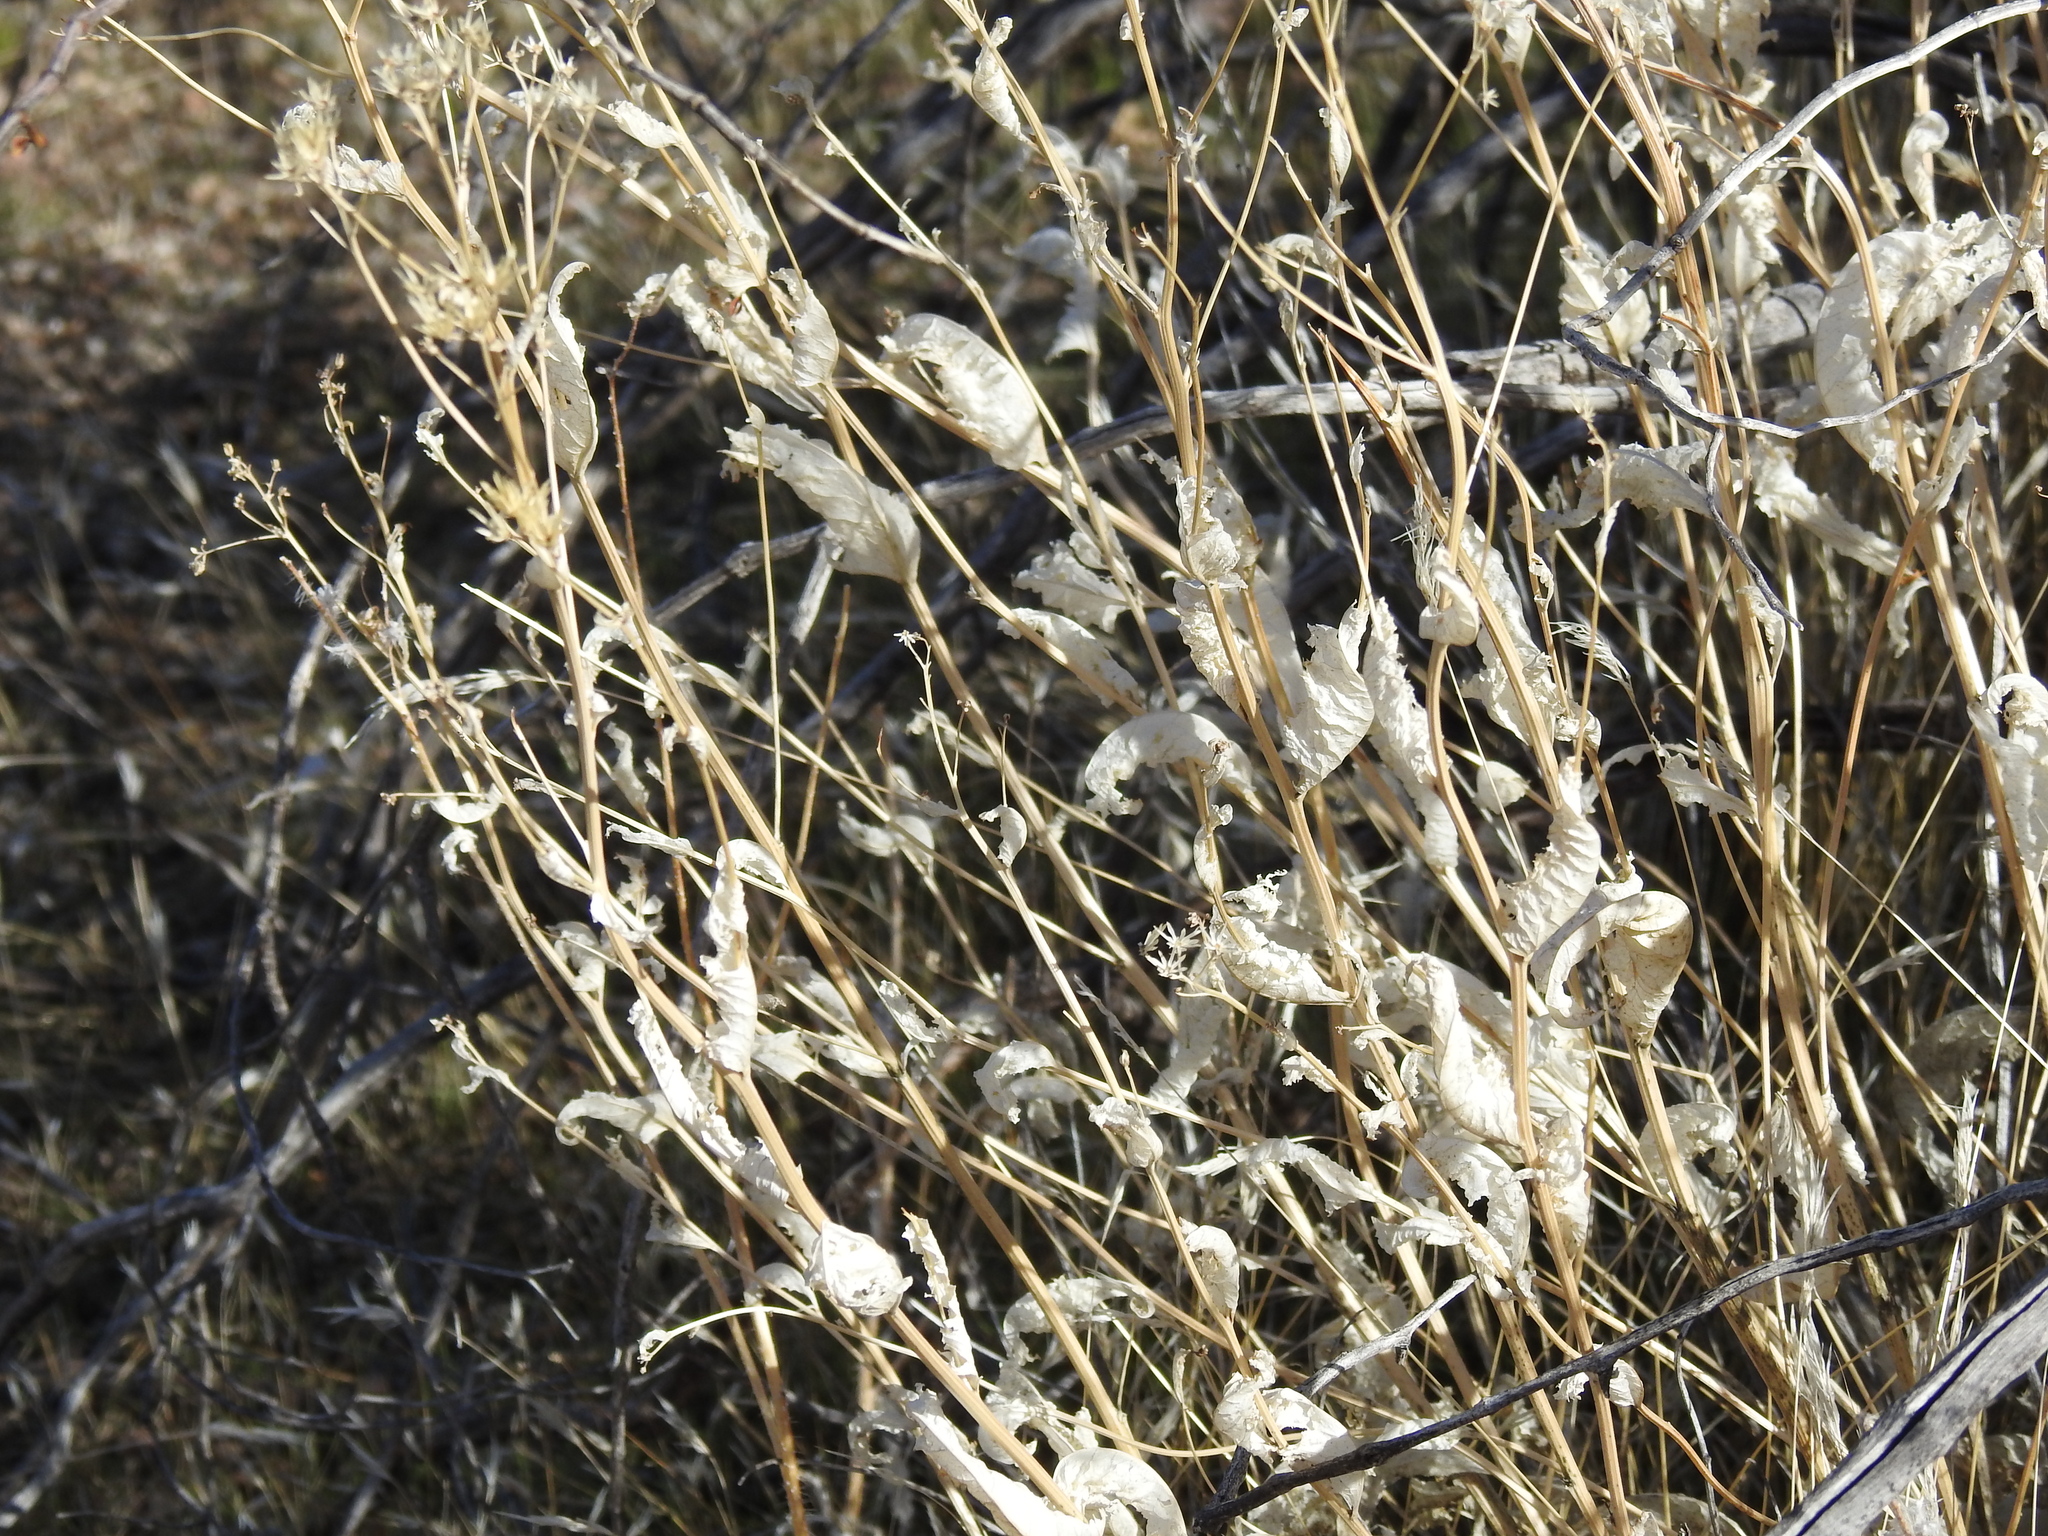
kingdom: Plantae
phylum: Tracheophyta
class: Magnoliopsida
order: Asterales
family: Asteraceae
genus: Acourtia
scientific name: Acourtia wrightii
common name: Brownfoot
